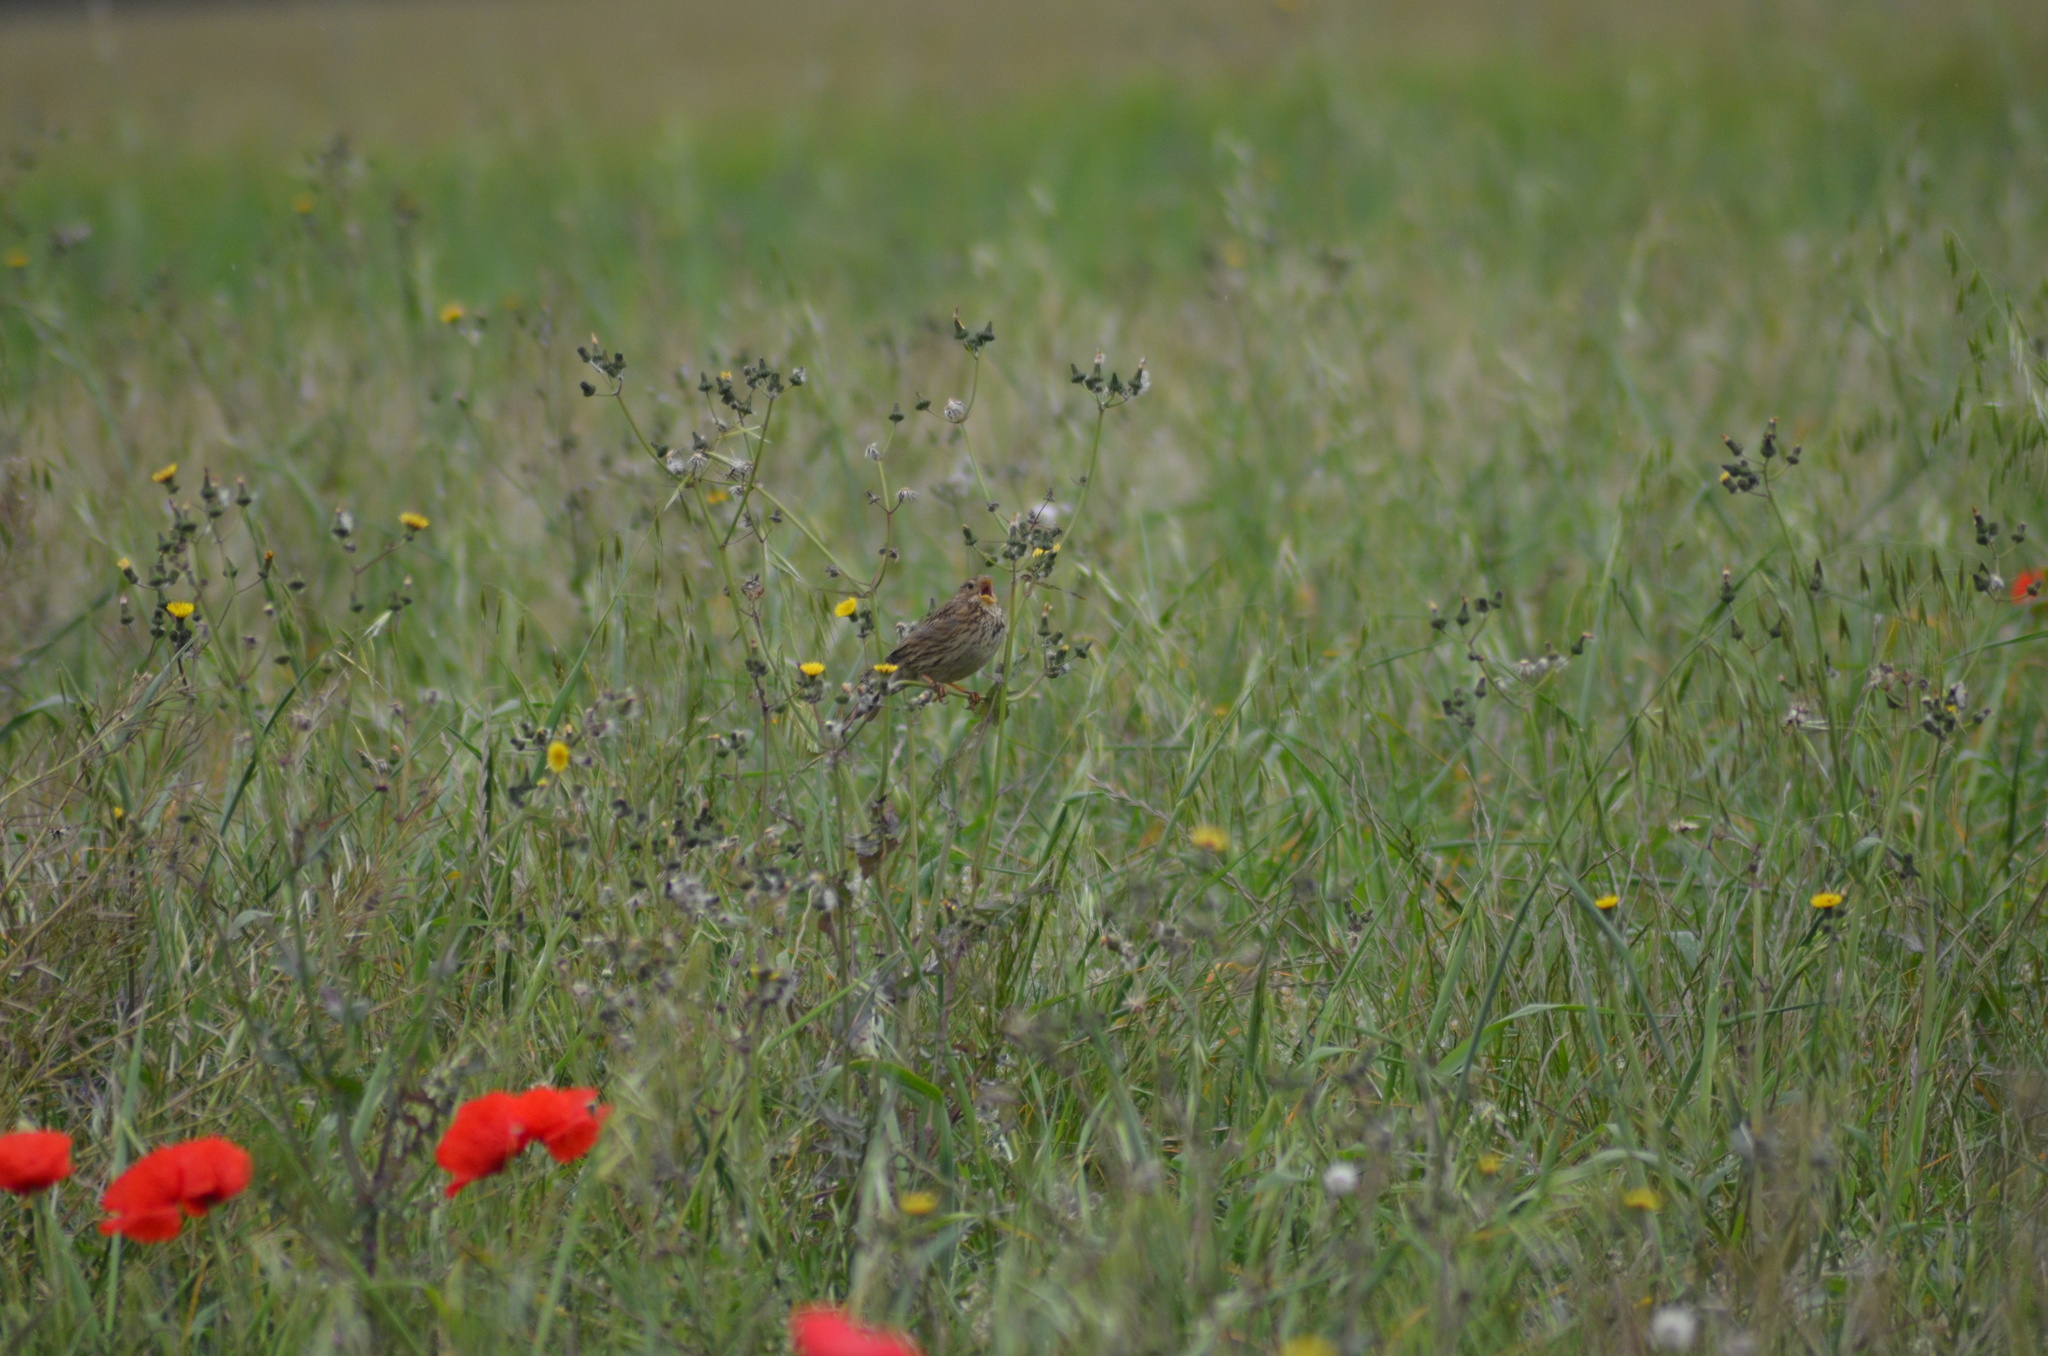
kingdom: Animalia
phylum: Chordata
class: Aves
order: Passeriformes
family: Emberizidae
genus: Emberiza
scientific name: Emberiza calandra
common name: Corn bunting
